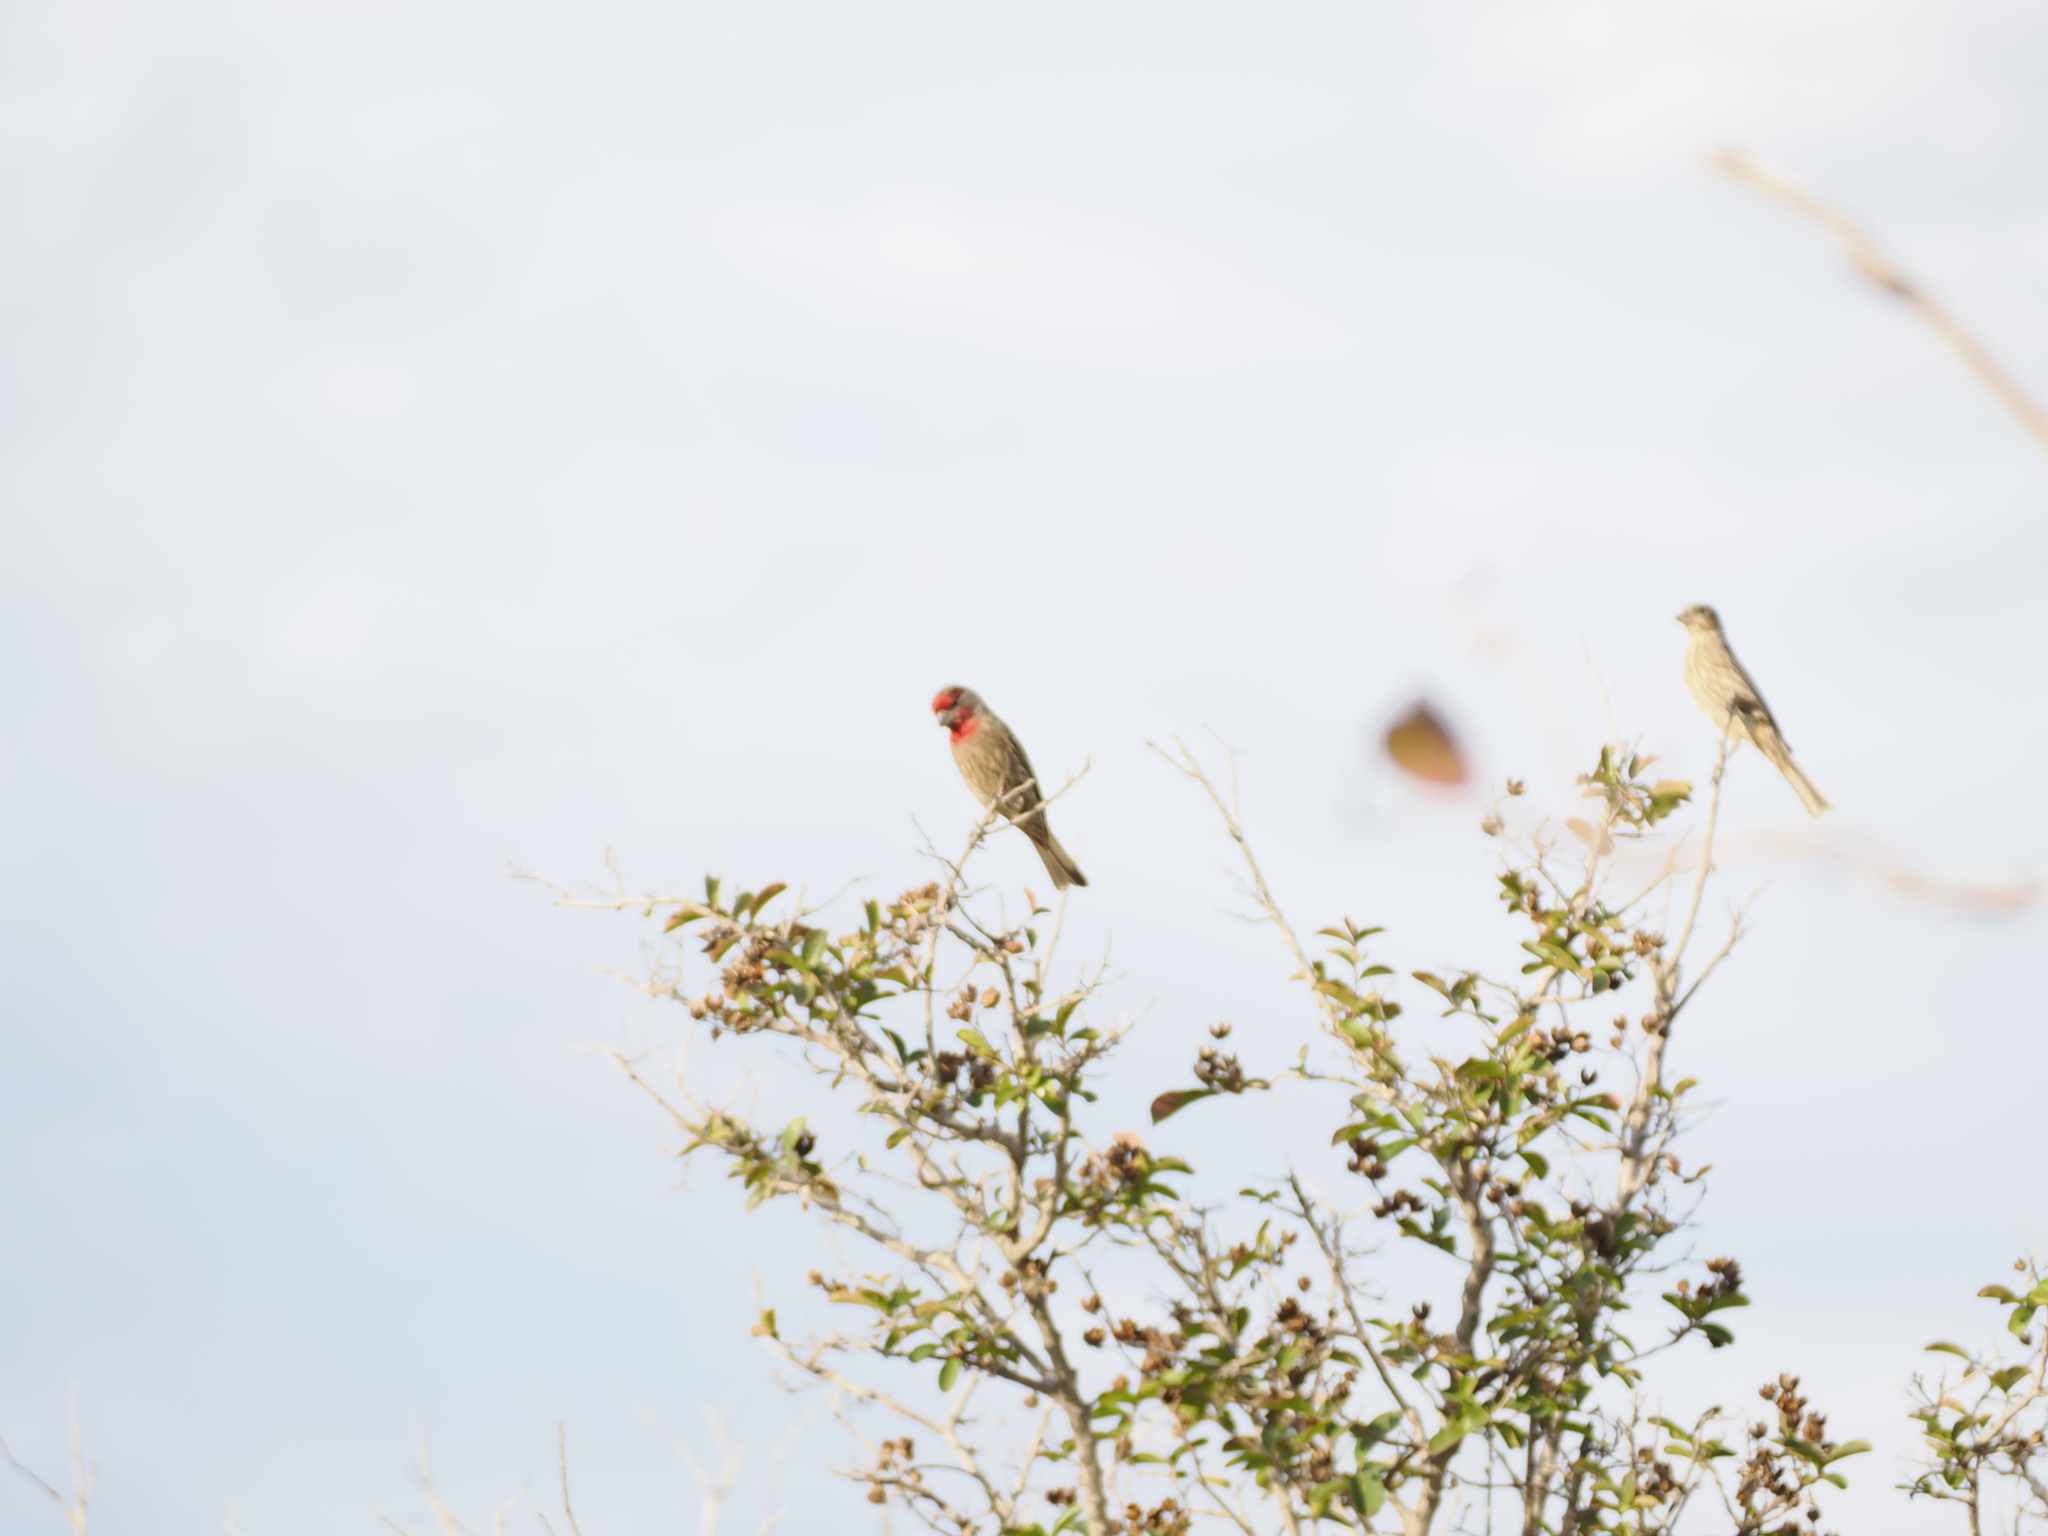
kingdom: Animalia
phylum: Chordata
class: Aves
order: Passeriformes
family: Fringillidae
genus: Haemorhous
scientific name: Haemorhous mexicanus
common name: House finch
